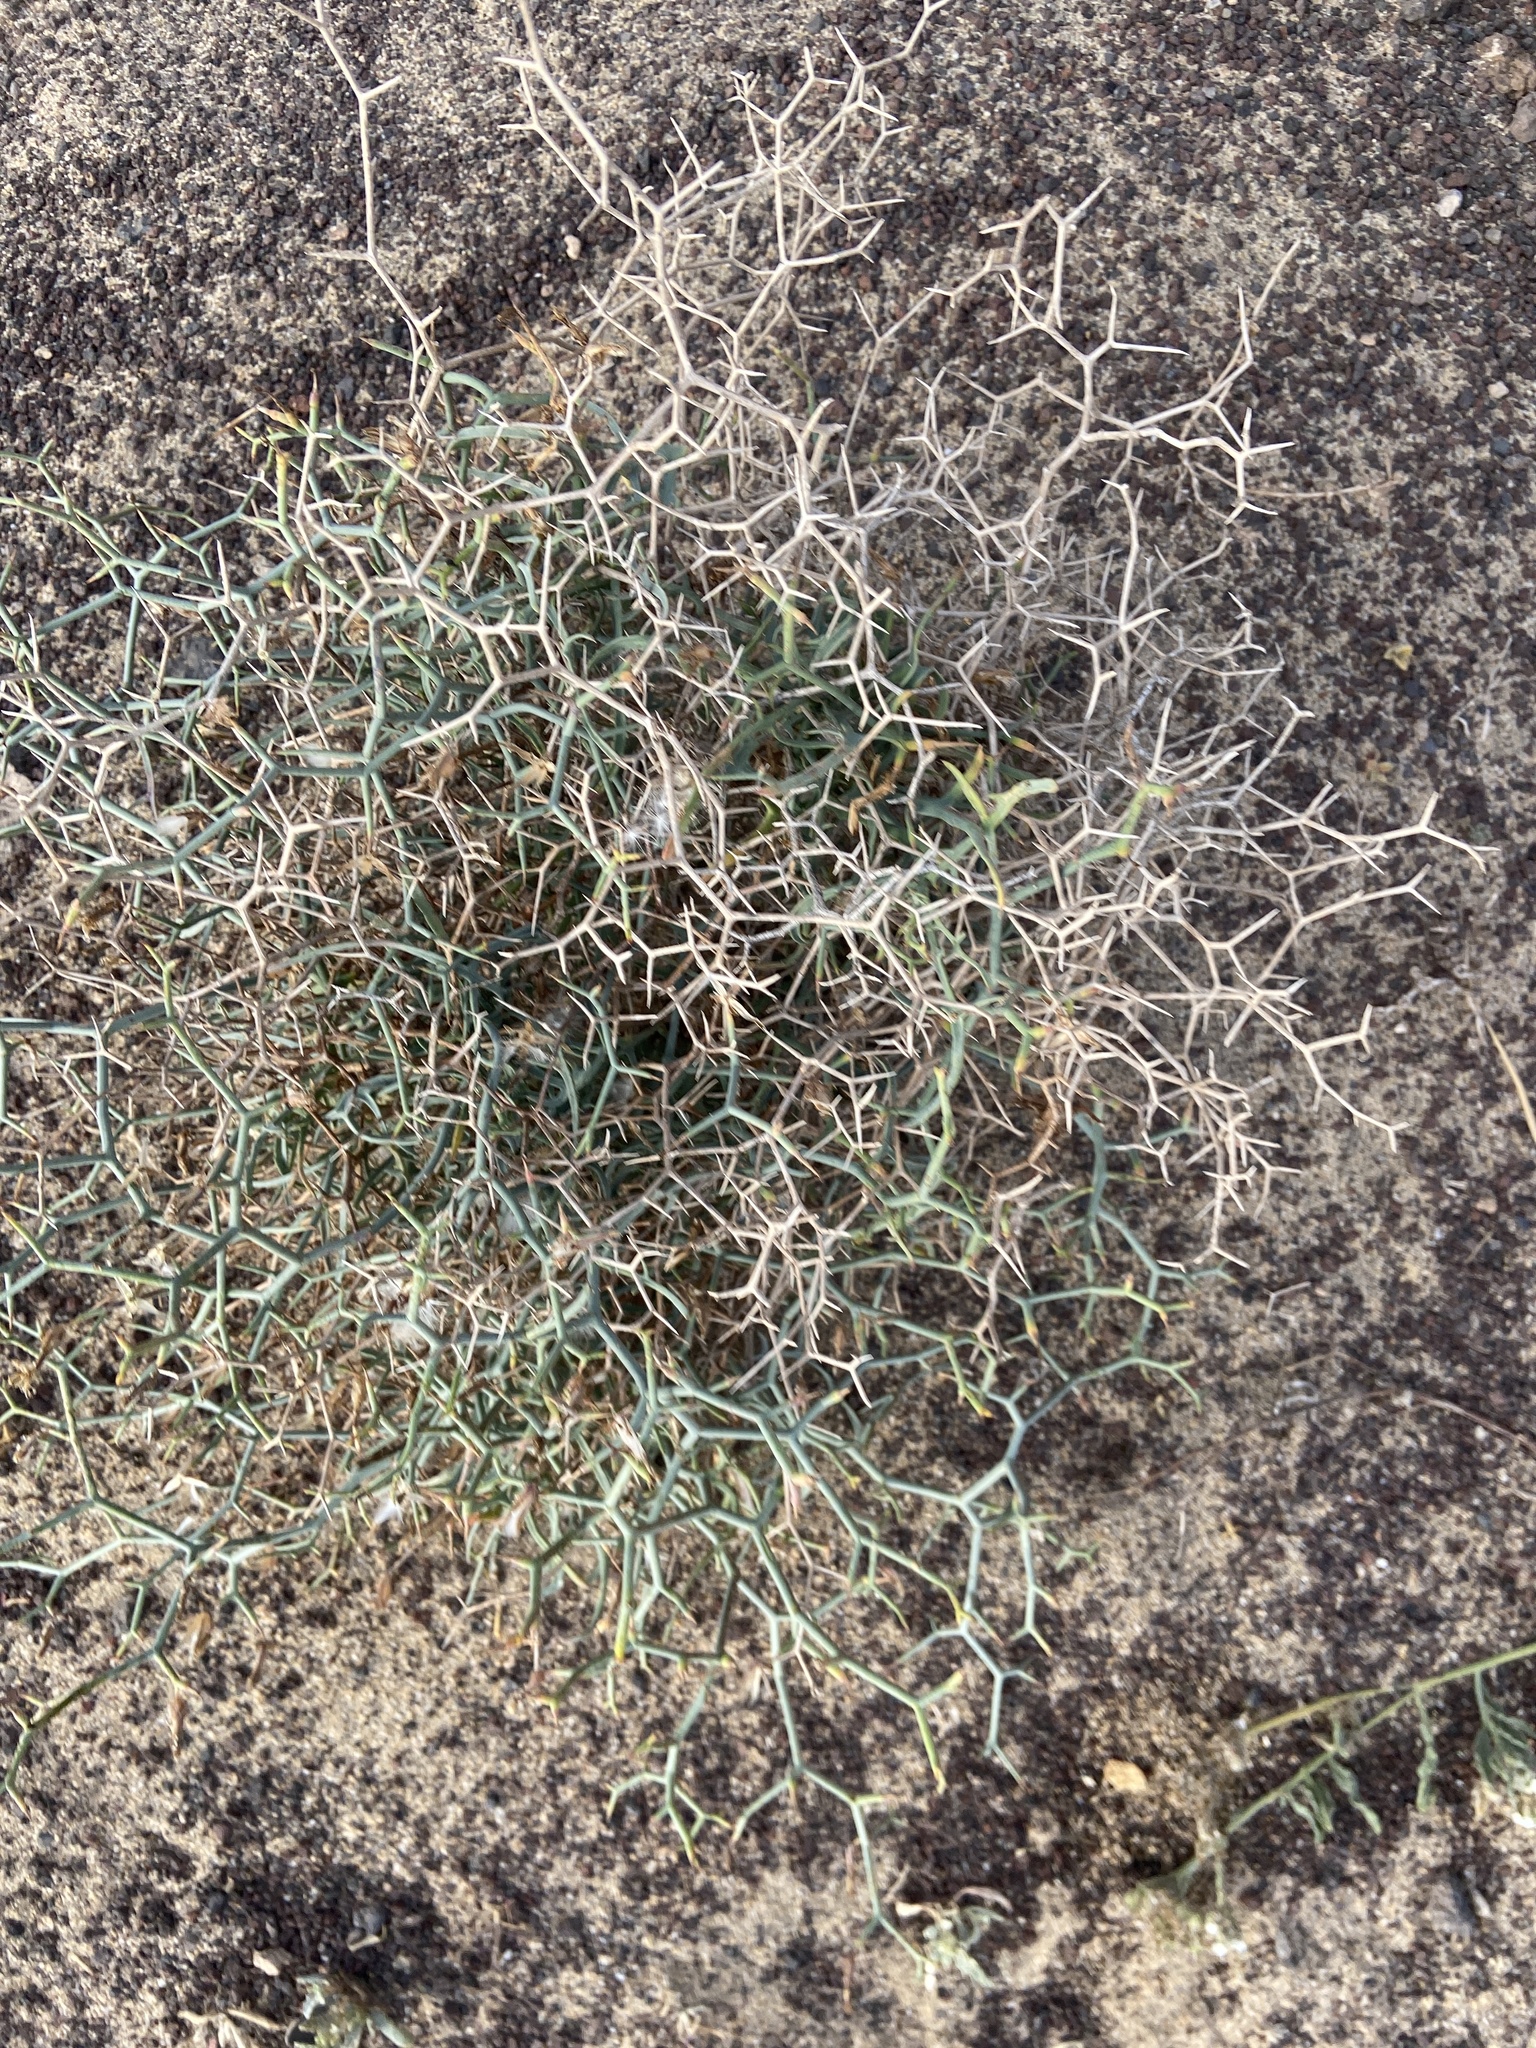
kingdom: Plantae
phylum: Tracheophyta
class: Magnoliopsida
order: Asterales
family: Asteraceae
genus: Launaea
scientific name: Launaea arborescens
